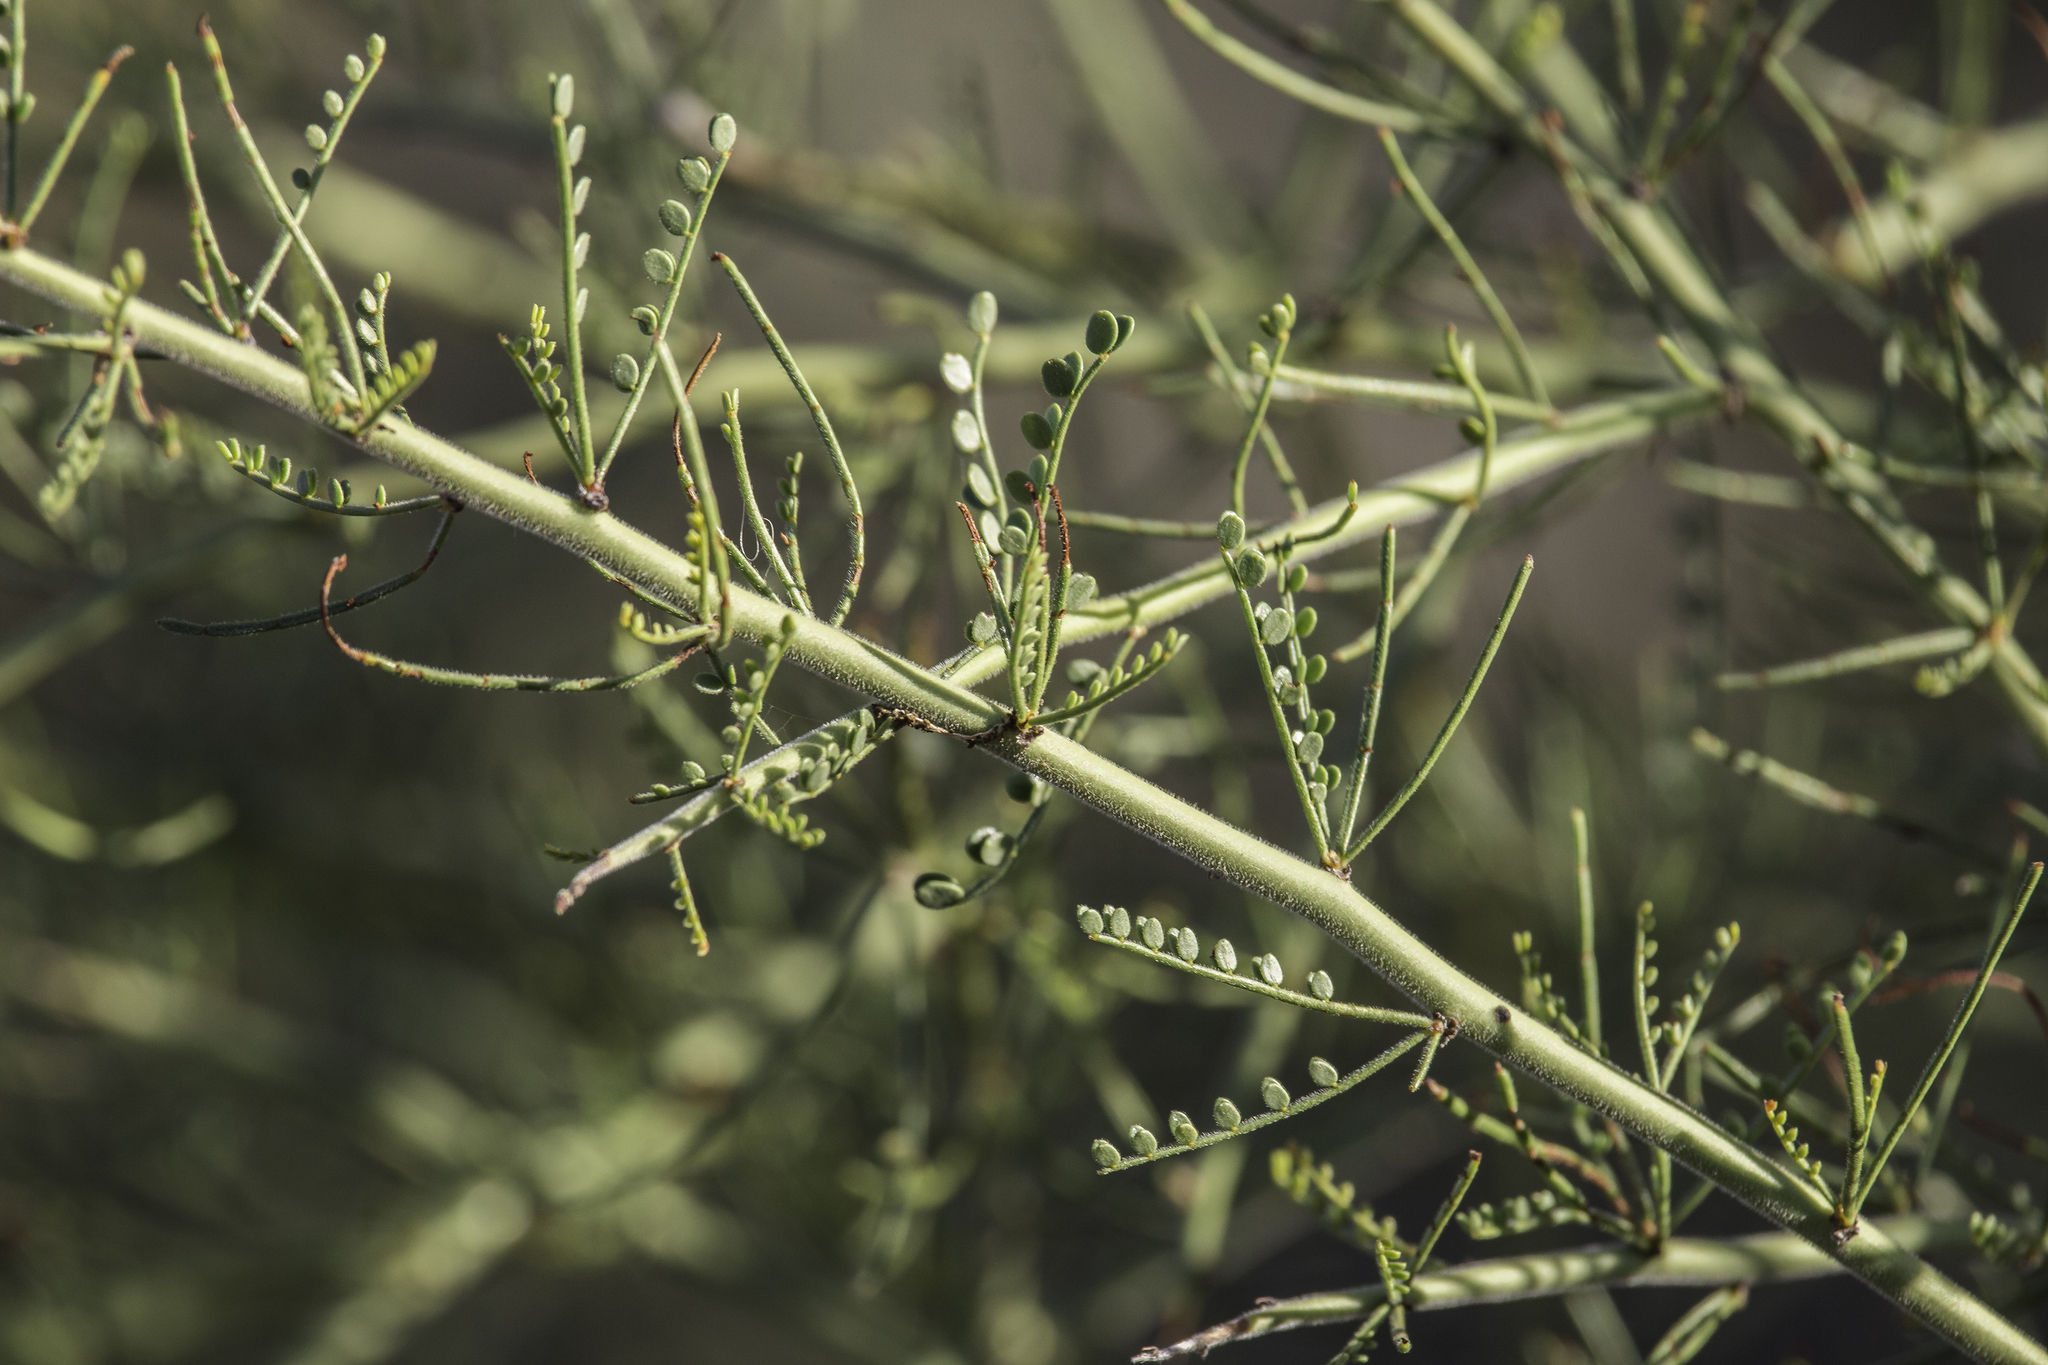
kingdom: Plantae
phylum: Tracheophyta
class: Magnoliopsida
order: Fabales
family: Fabaceae
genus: Parkinsonia
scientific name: Parkinsonia microphylla
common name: Yellow paloverde
